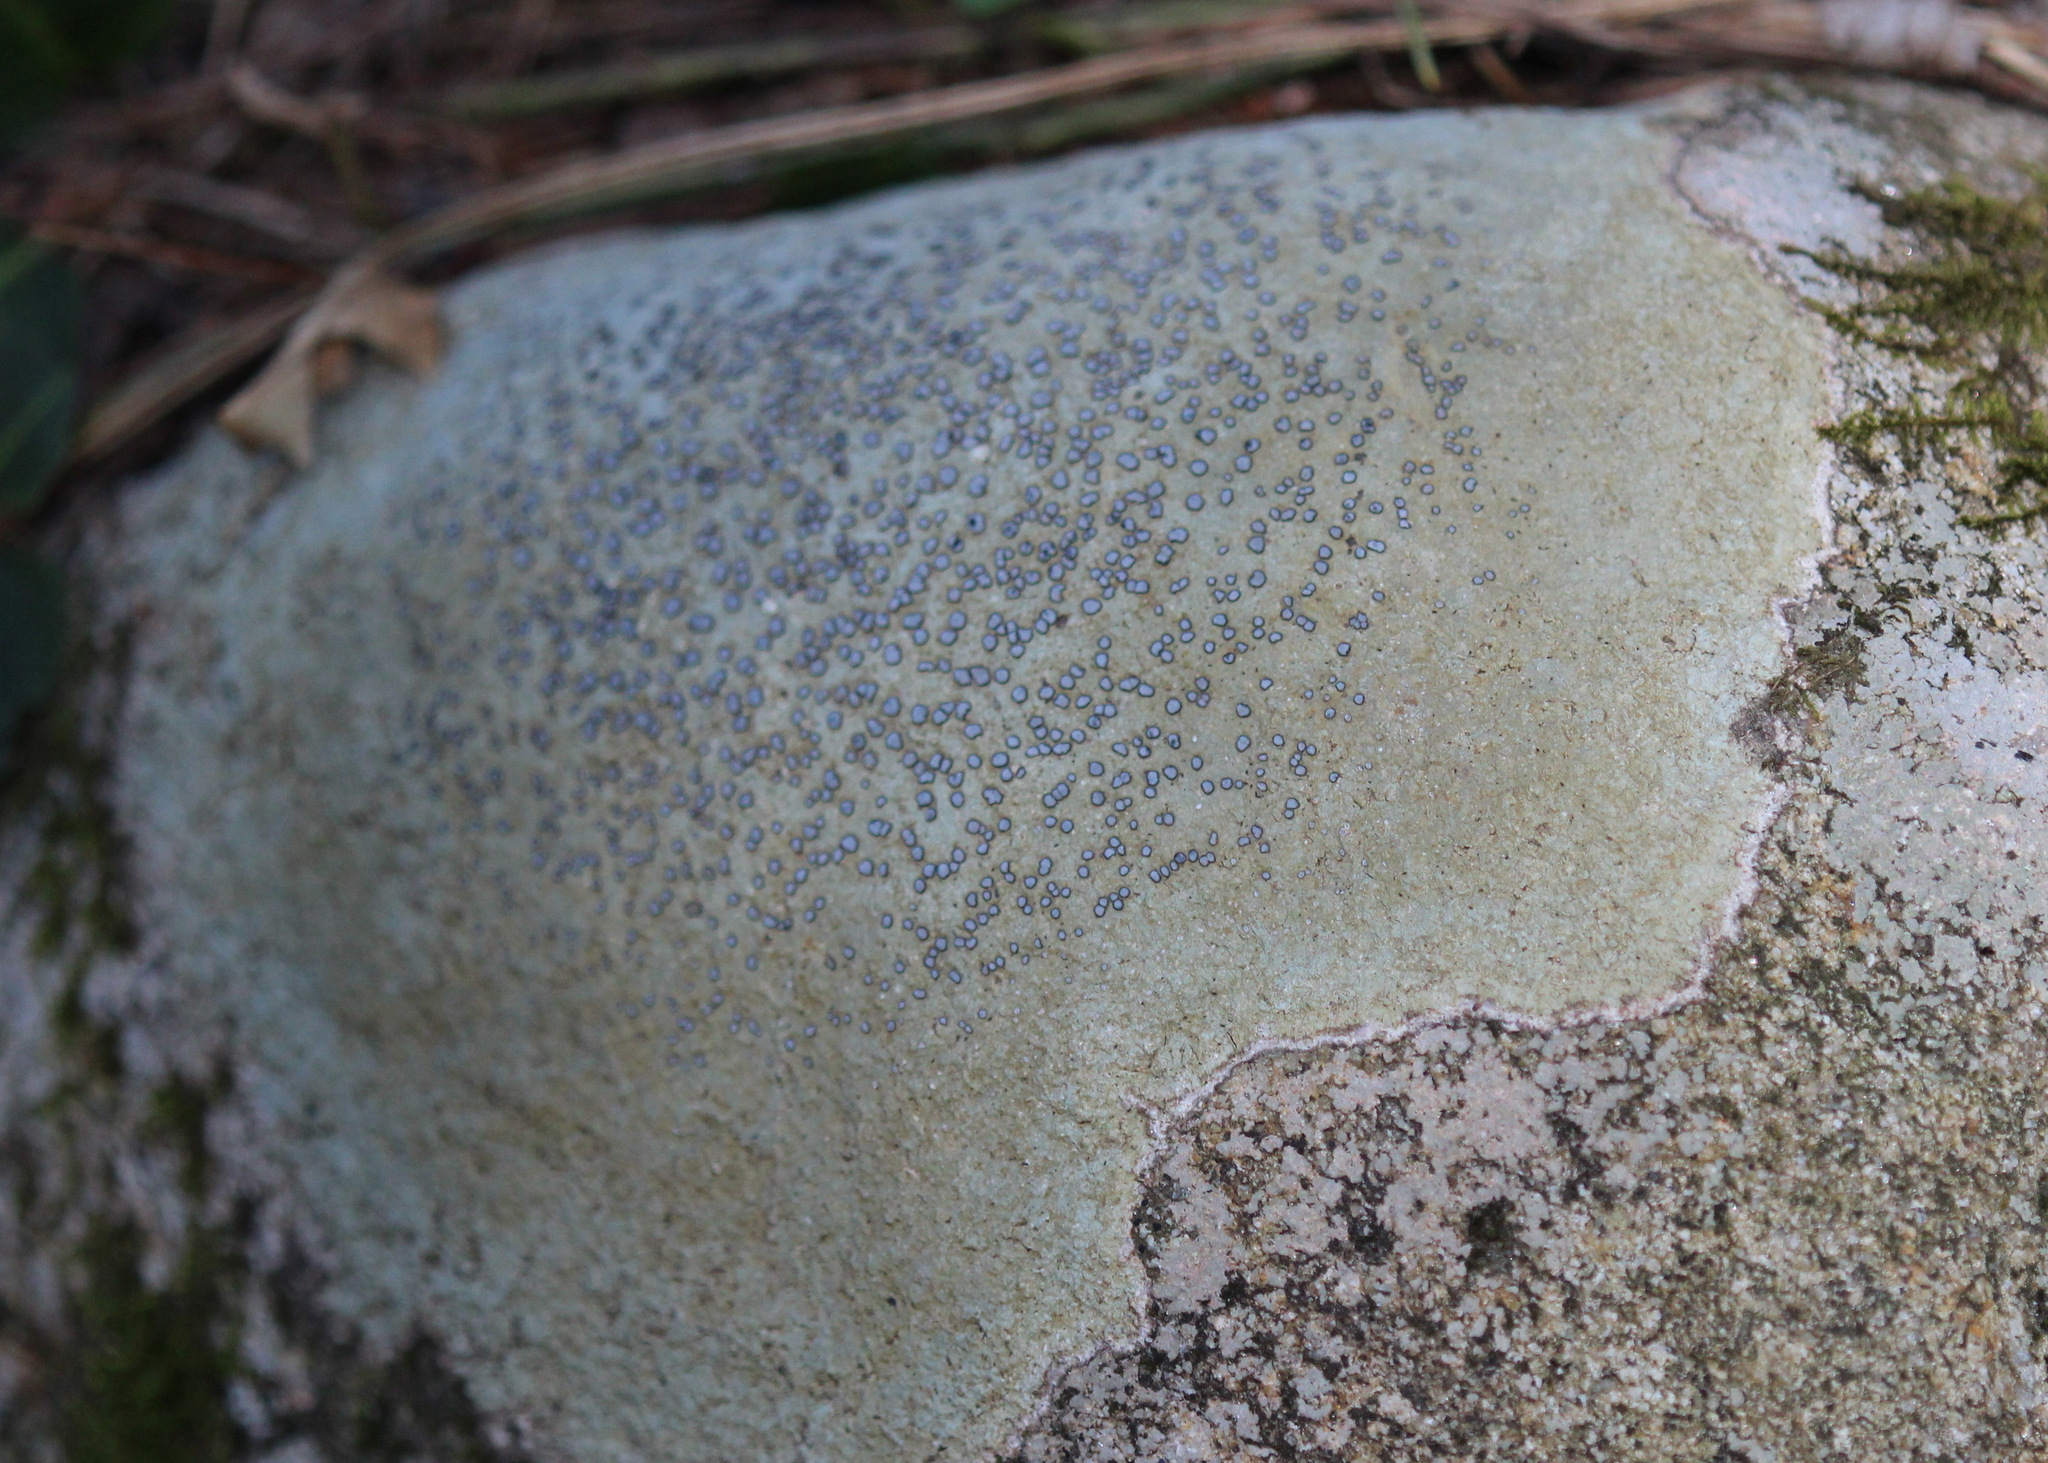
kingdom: Fungi
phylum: Ascomycota
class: Lecanoromycetes
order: Lecideales
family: Lecideaceae
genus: Porpidia
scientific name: Porpidia albocaerulescens
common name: Smokey-eyed boulder lichen
